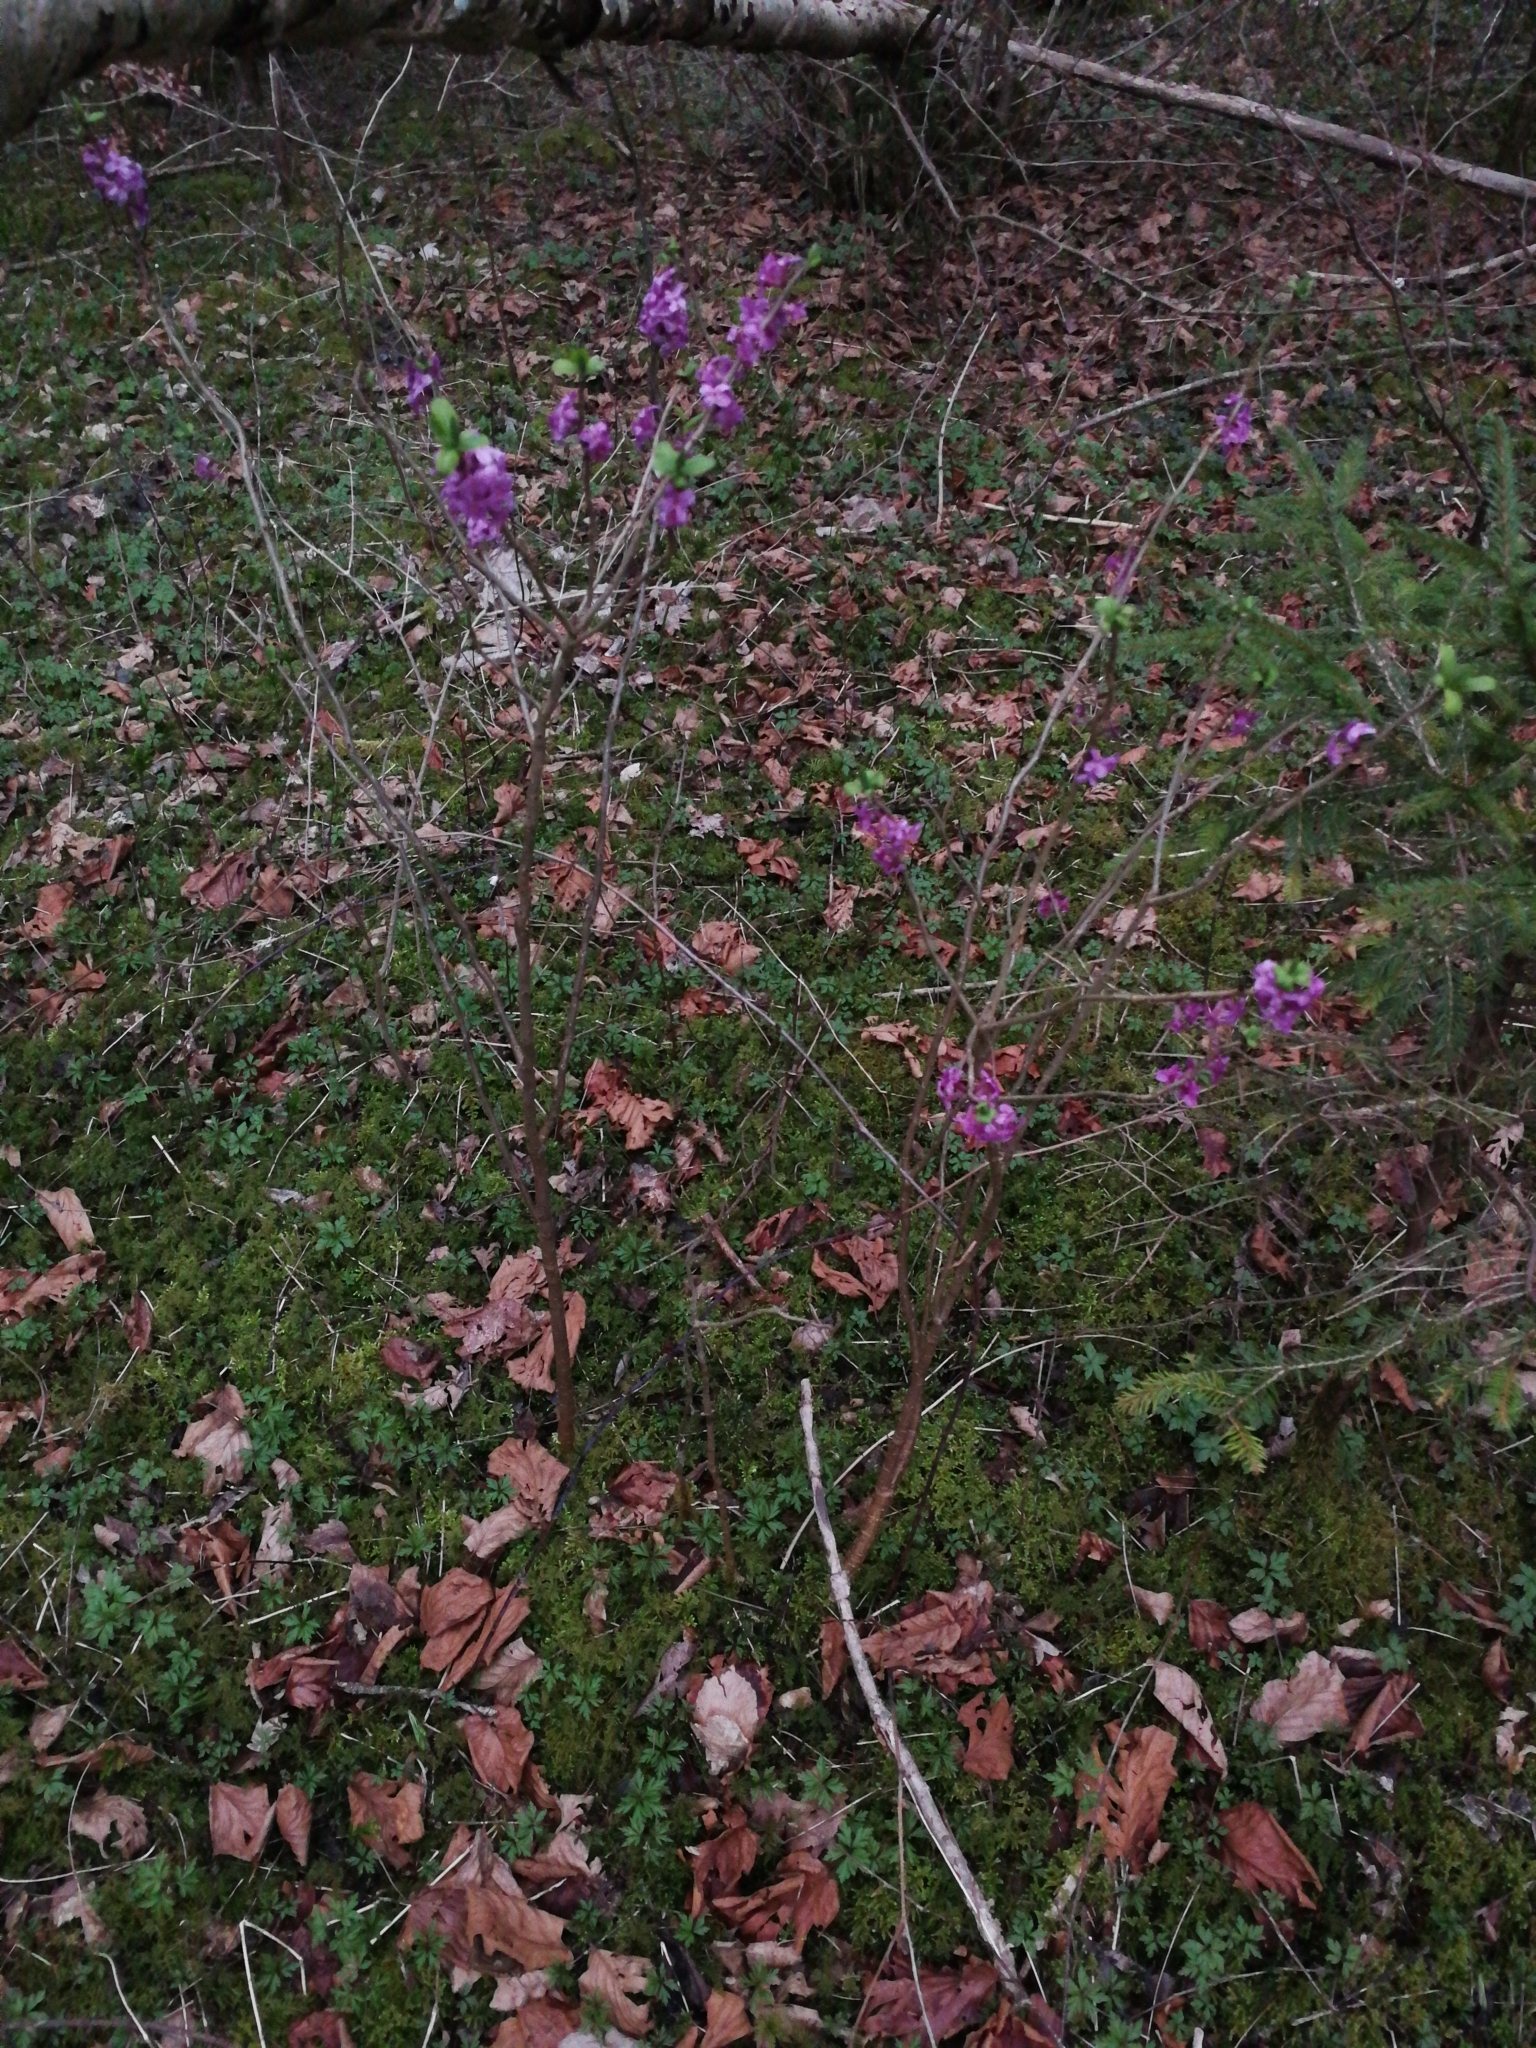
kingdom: Plantae
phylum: Tracheophyta
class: Magnoliopsida
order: Malvales
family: Thymelaeaceae
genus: Daphne
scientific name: Daphne mezereum
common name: Mezereon
